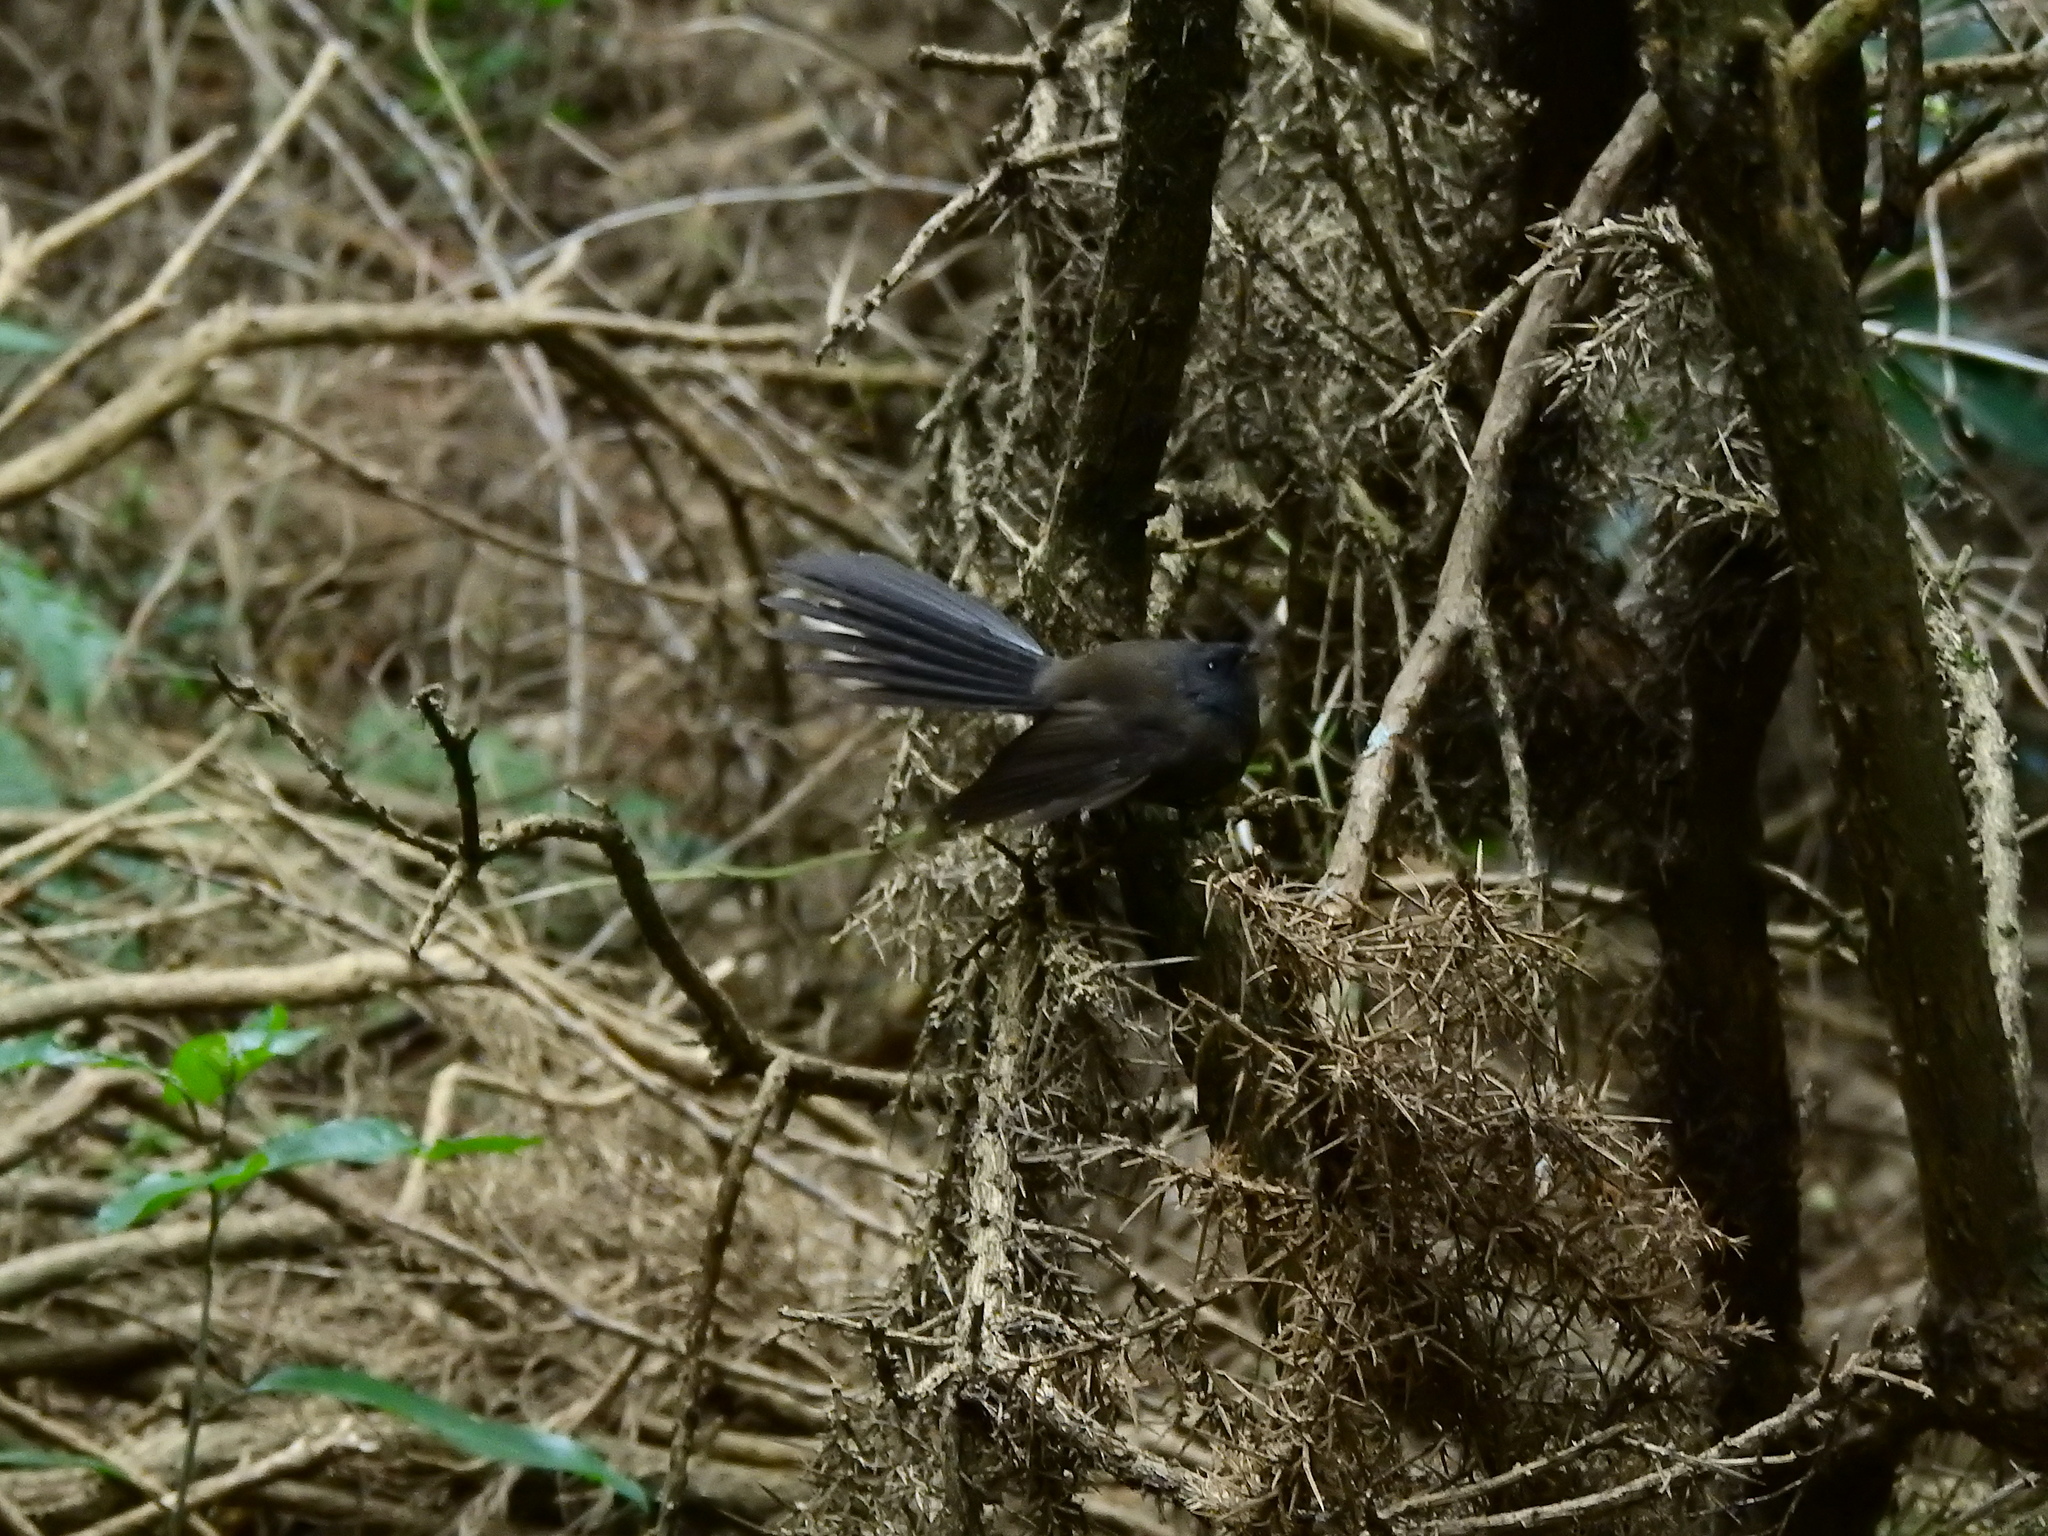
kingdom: Animalia
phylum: Chordata
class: Aves
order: Passeriformes
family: Rhipiduridae
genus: Rhipidura
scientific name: Rhipidura fuliginosa
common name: New zealand fantail
